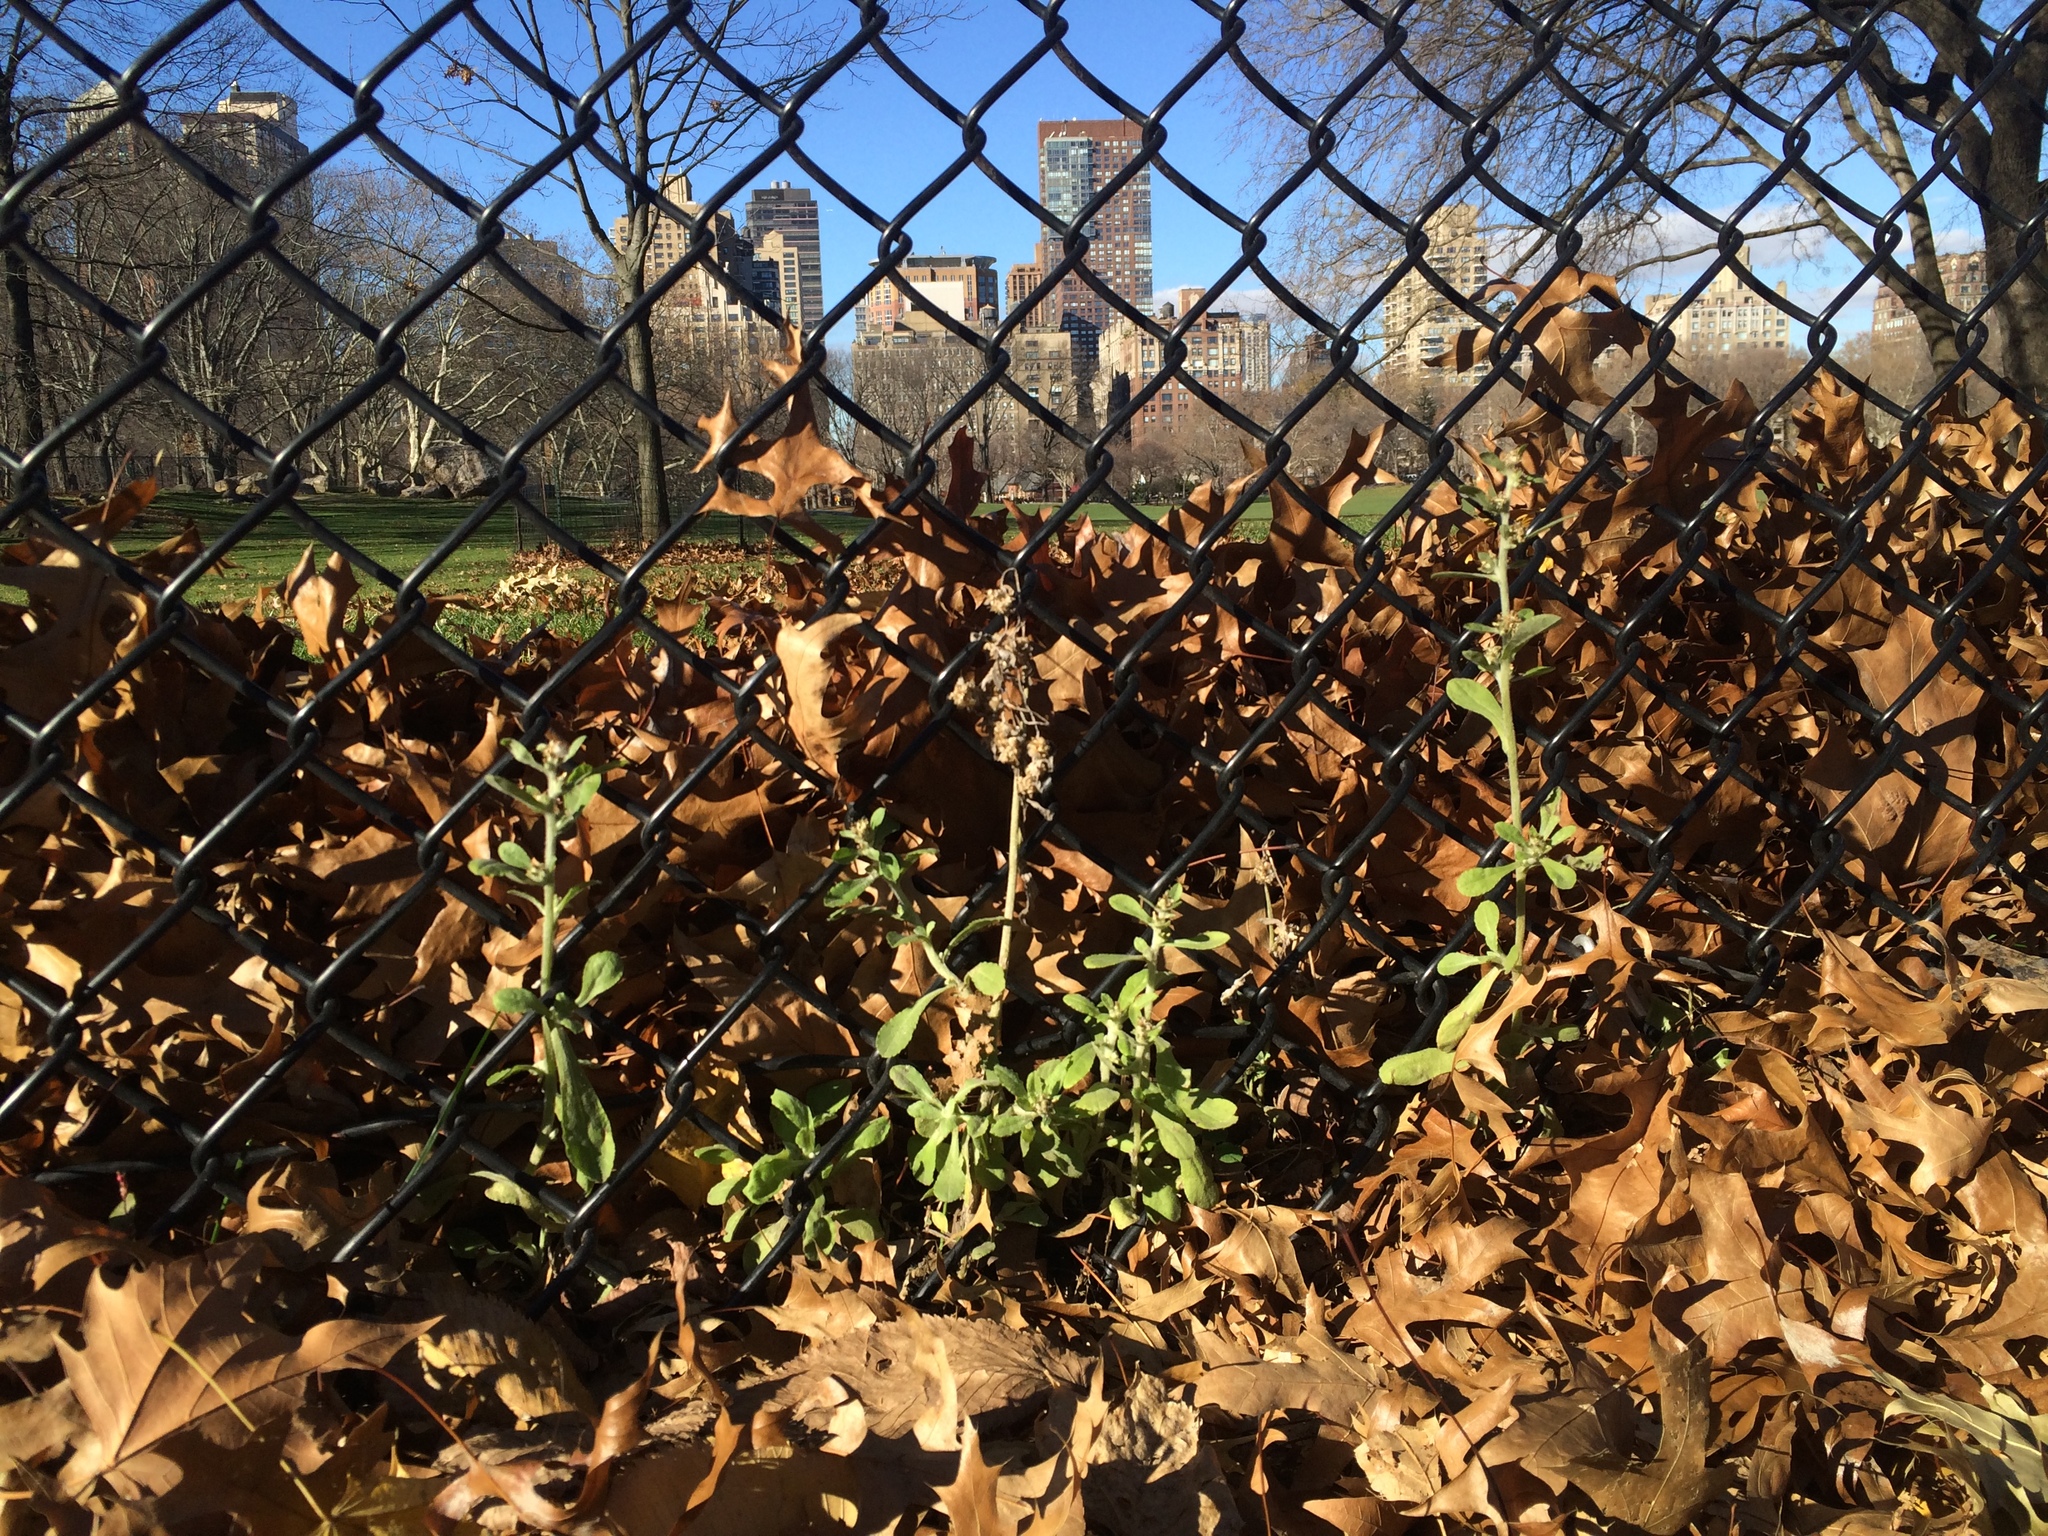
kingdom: Plantae
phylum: Tracheophyta
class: Magnoliopsida
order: Asterales
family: Asteraceae
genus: Gamochaeta
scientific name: Gamochaeta pensylvanica
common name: Pennsylvania everlasting
